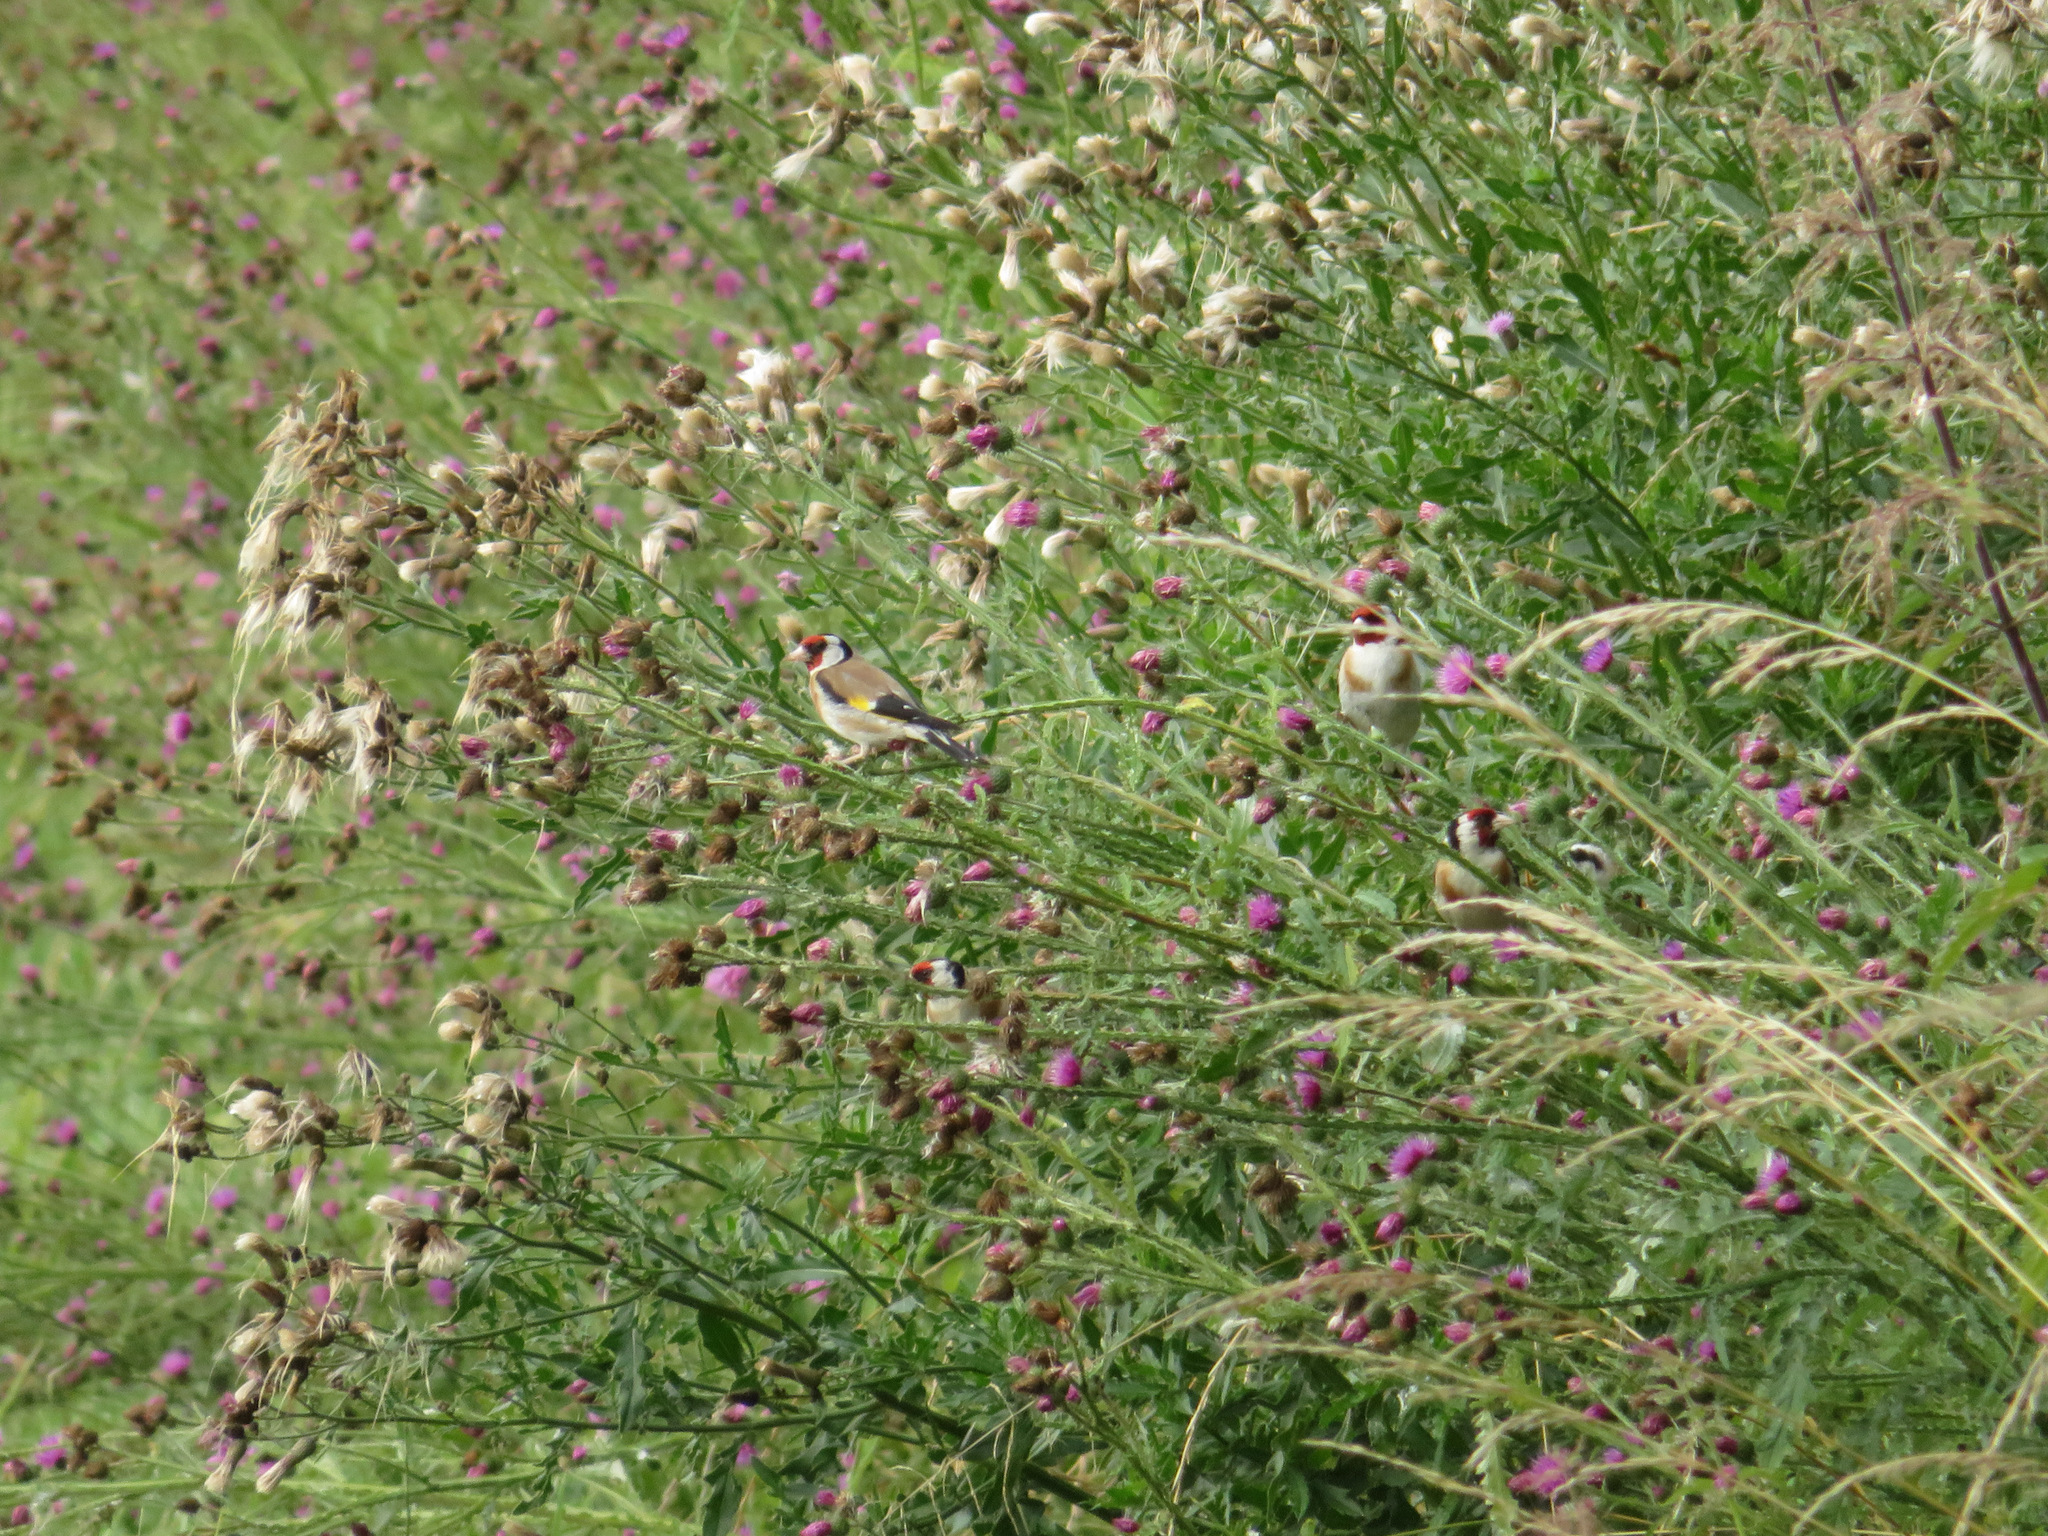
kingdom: Animalia
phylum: Chordata
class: Aves
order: Passeriformes
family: Fringillidae
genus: Carduelis
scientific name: Carduelis carduelis
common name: European goldfinch
